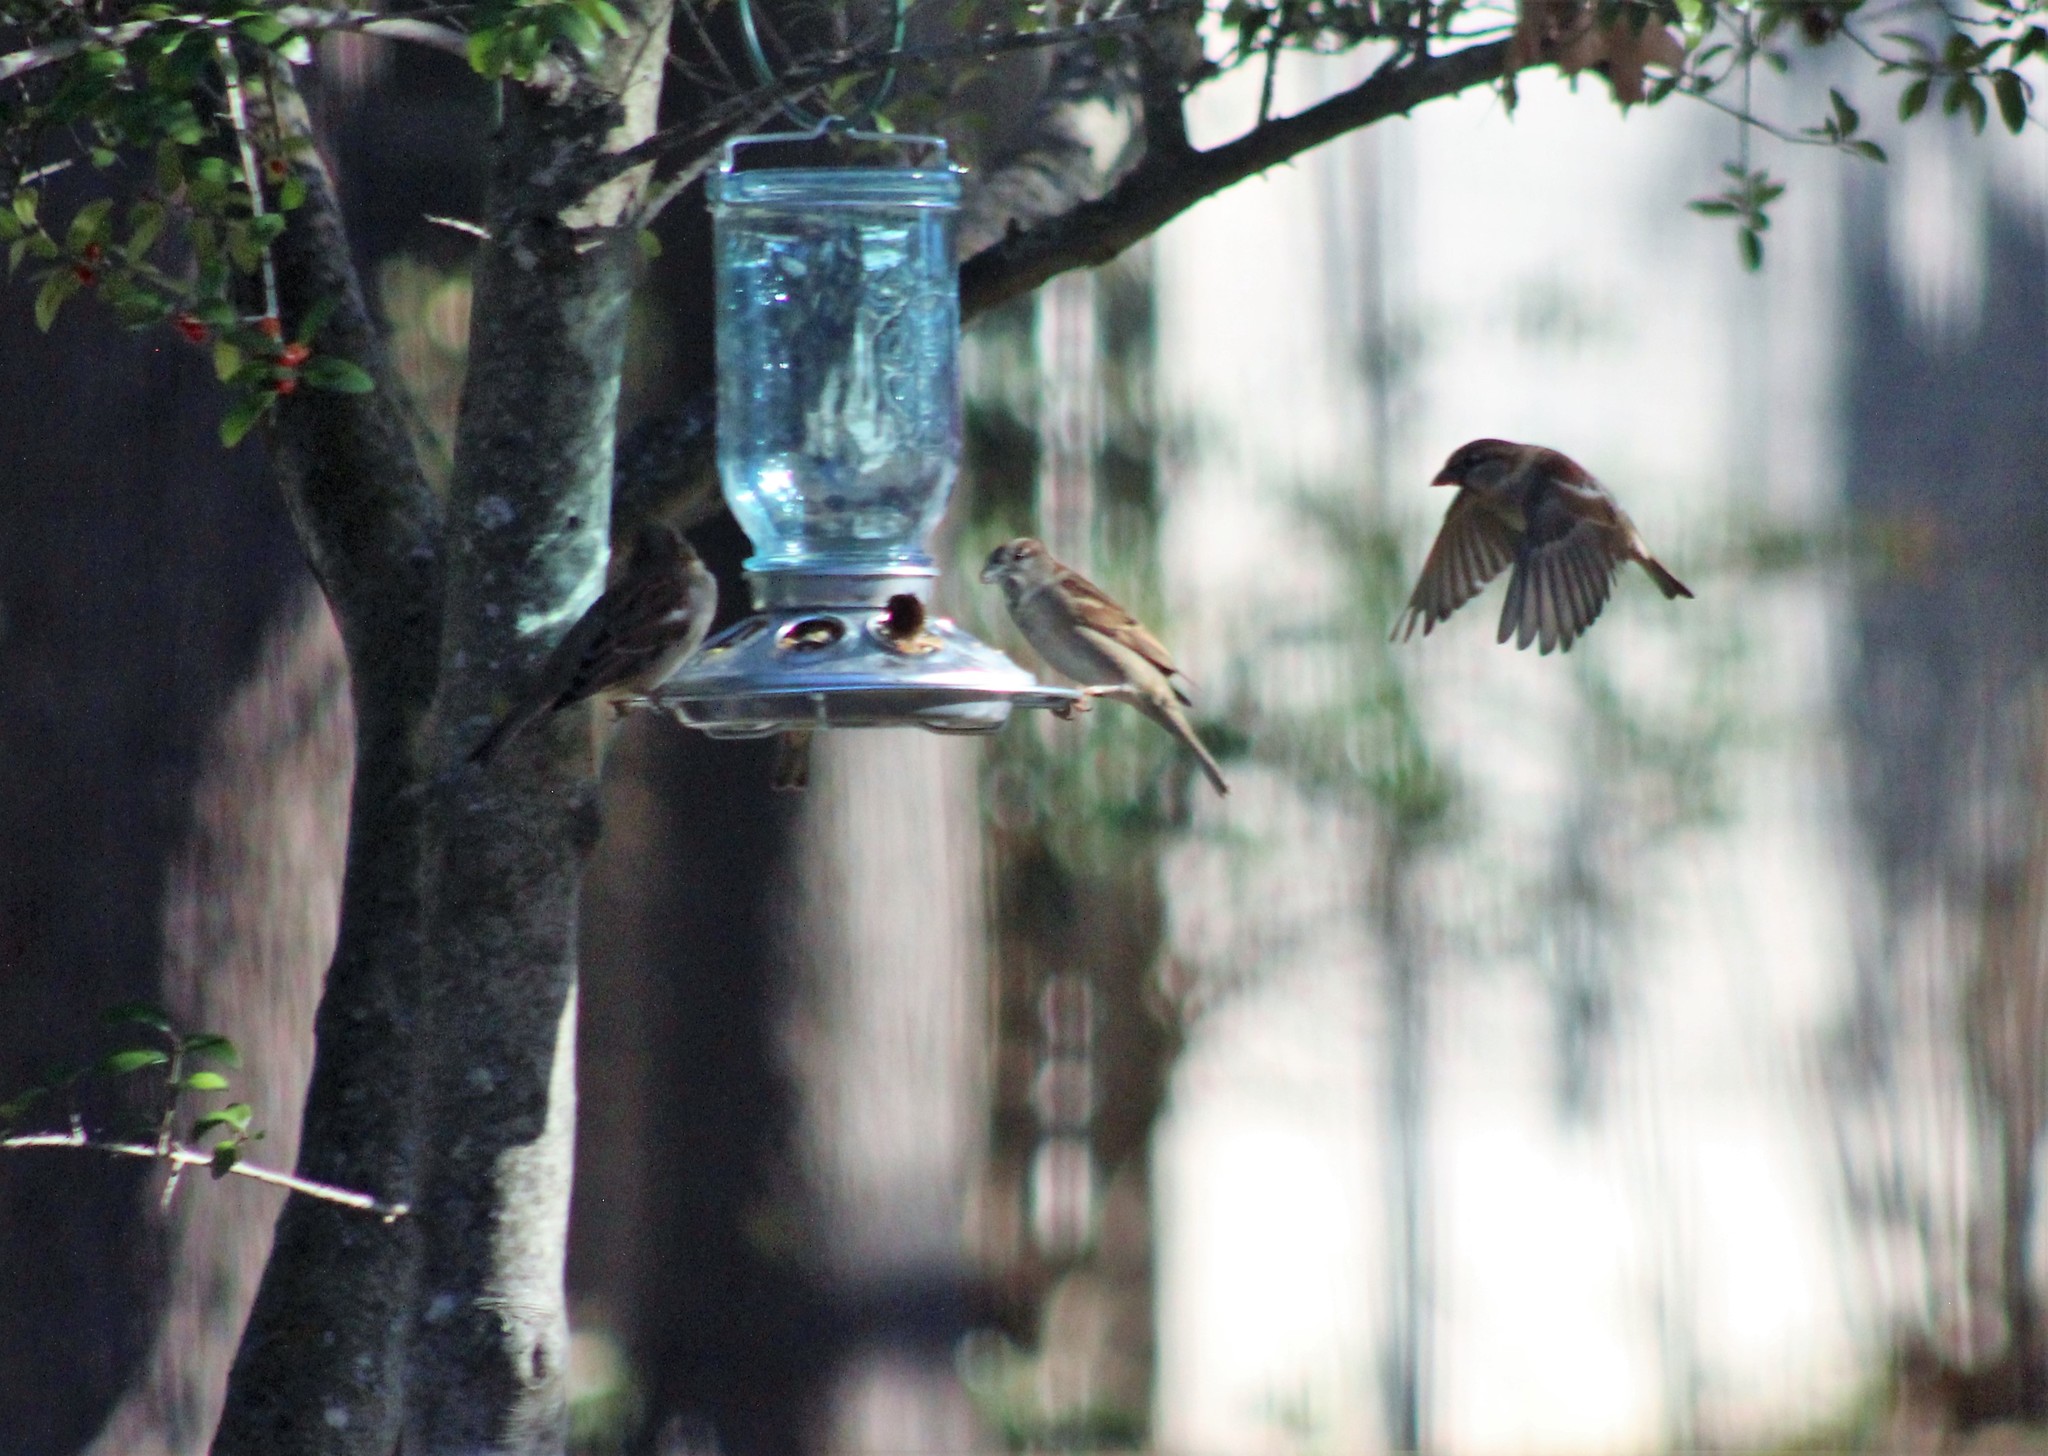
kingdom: Animalia
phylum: Chordata
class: Aves
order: Passeriformes
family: Passeridae
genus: Passer
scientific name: Passer domesticus
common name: House sparrow
